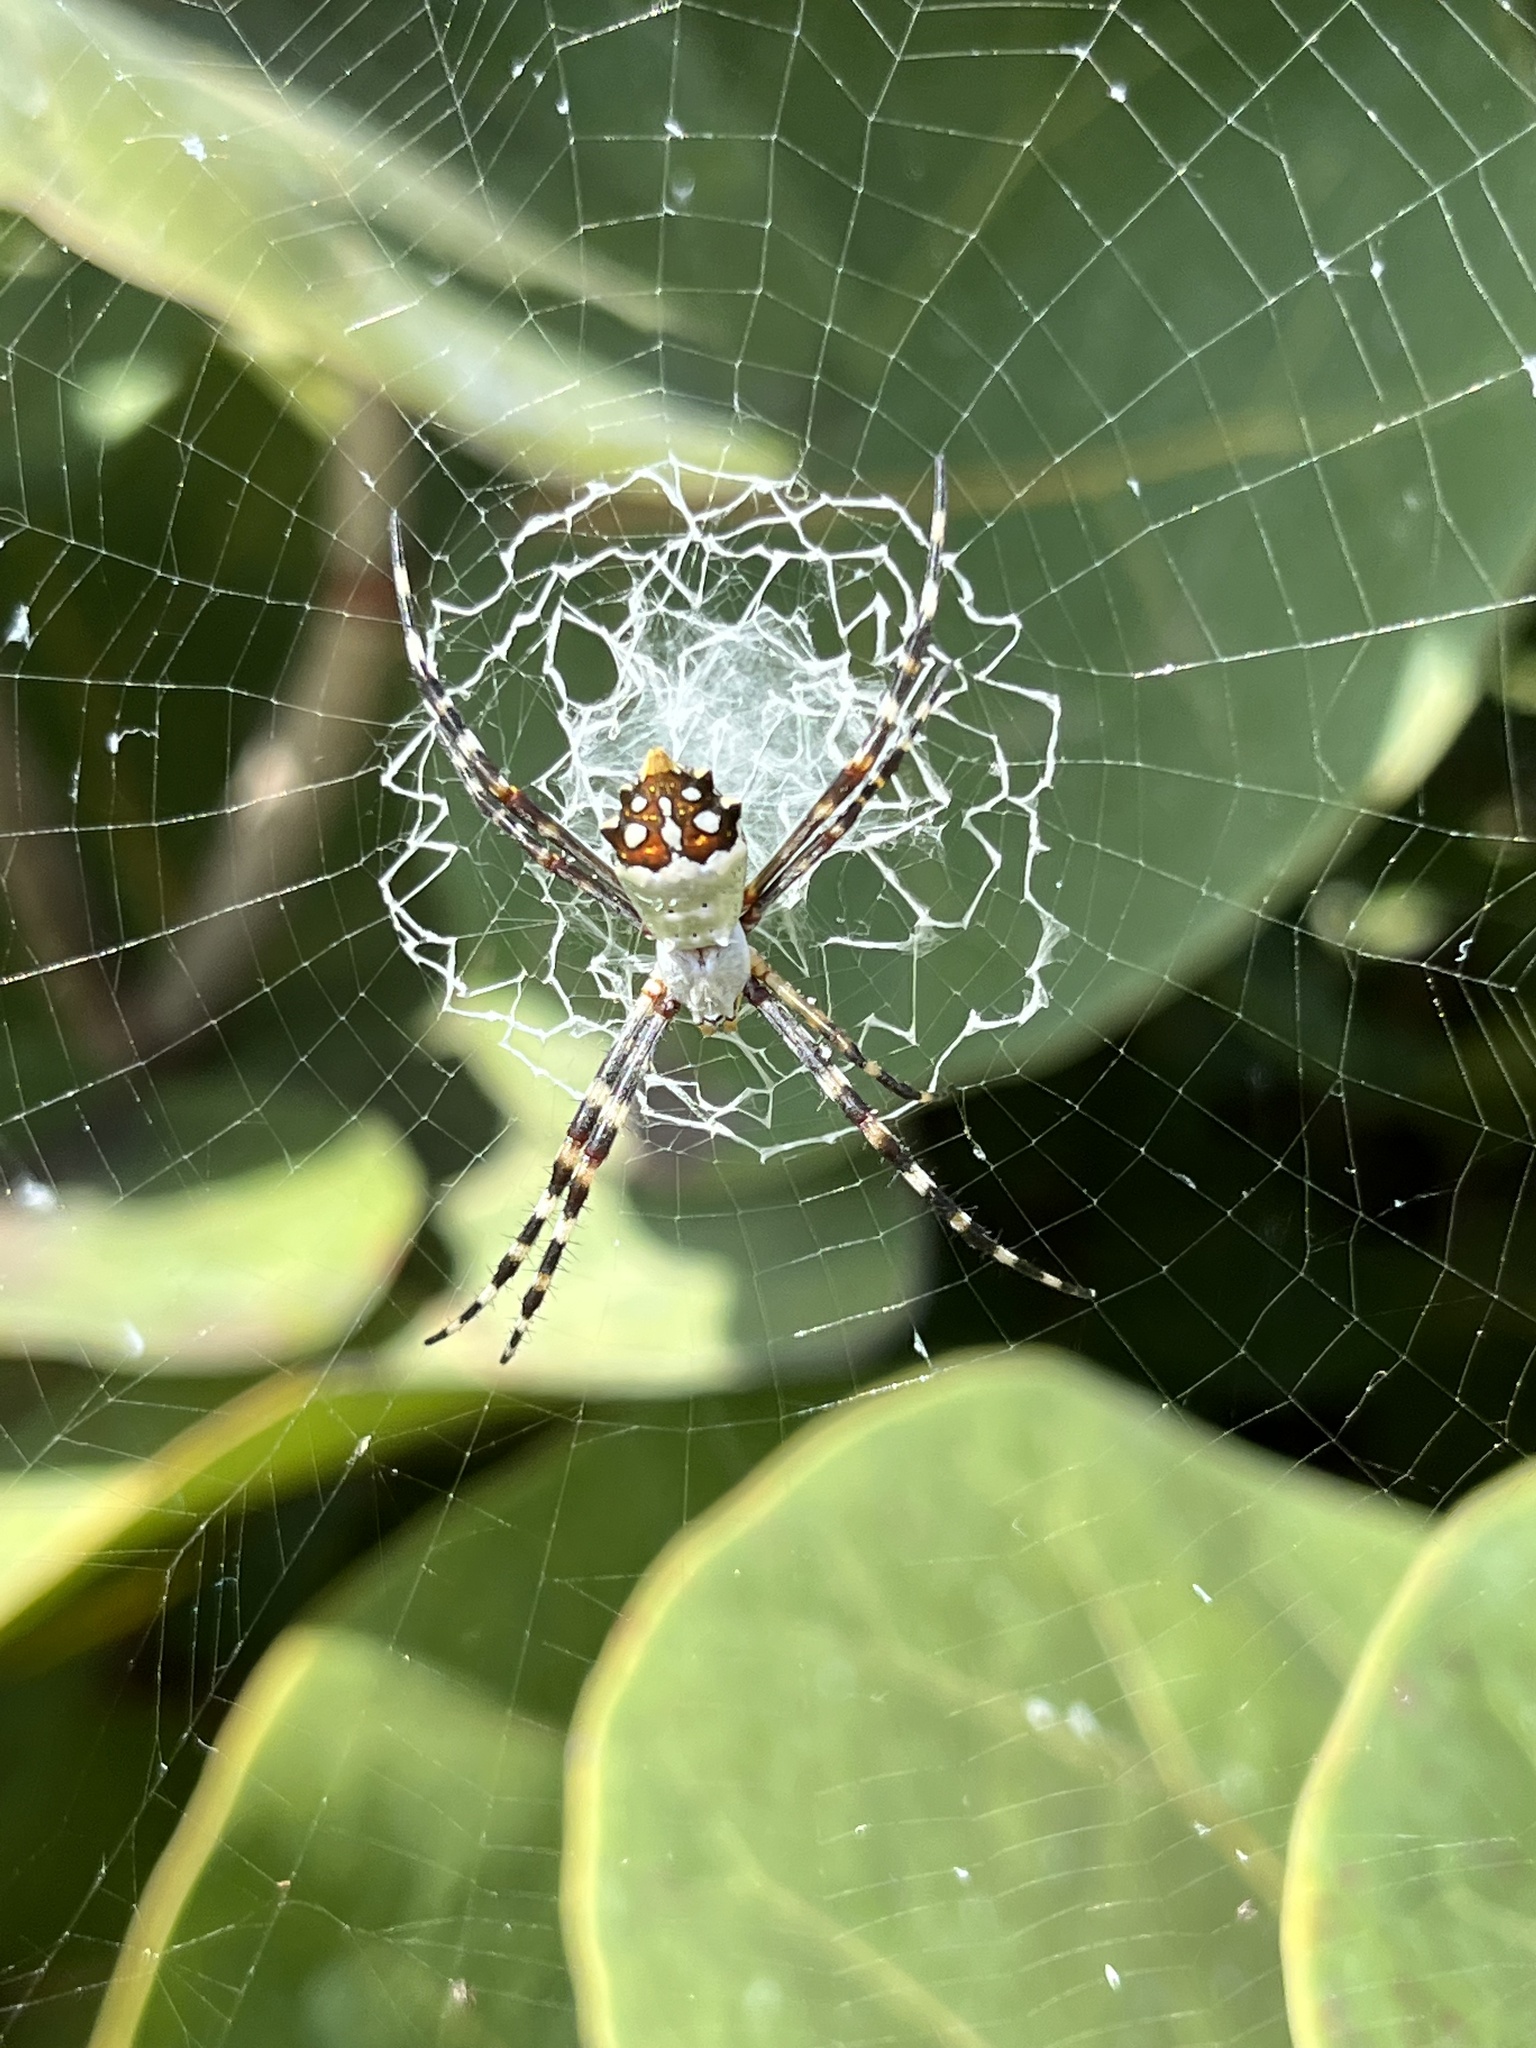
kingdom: Animalia
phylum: Arthropoda
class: Arachnida
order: Araneae
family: Araneidae
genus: Argiope
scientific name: Argiope argentata
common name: Orb weavers
